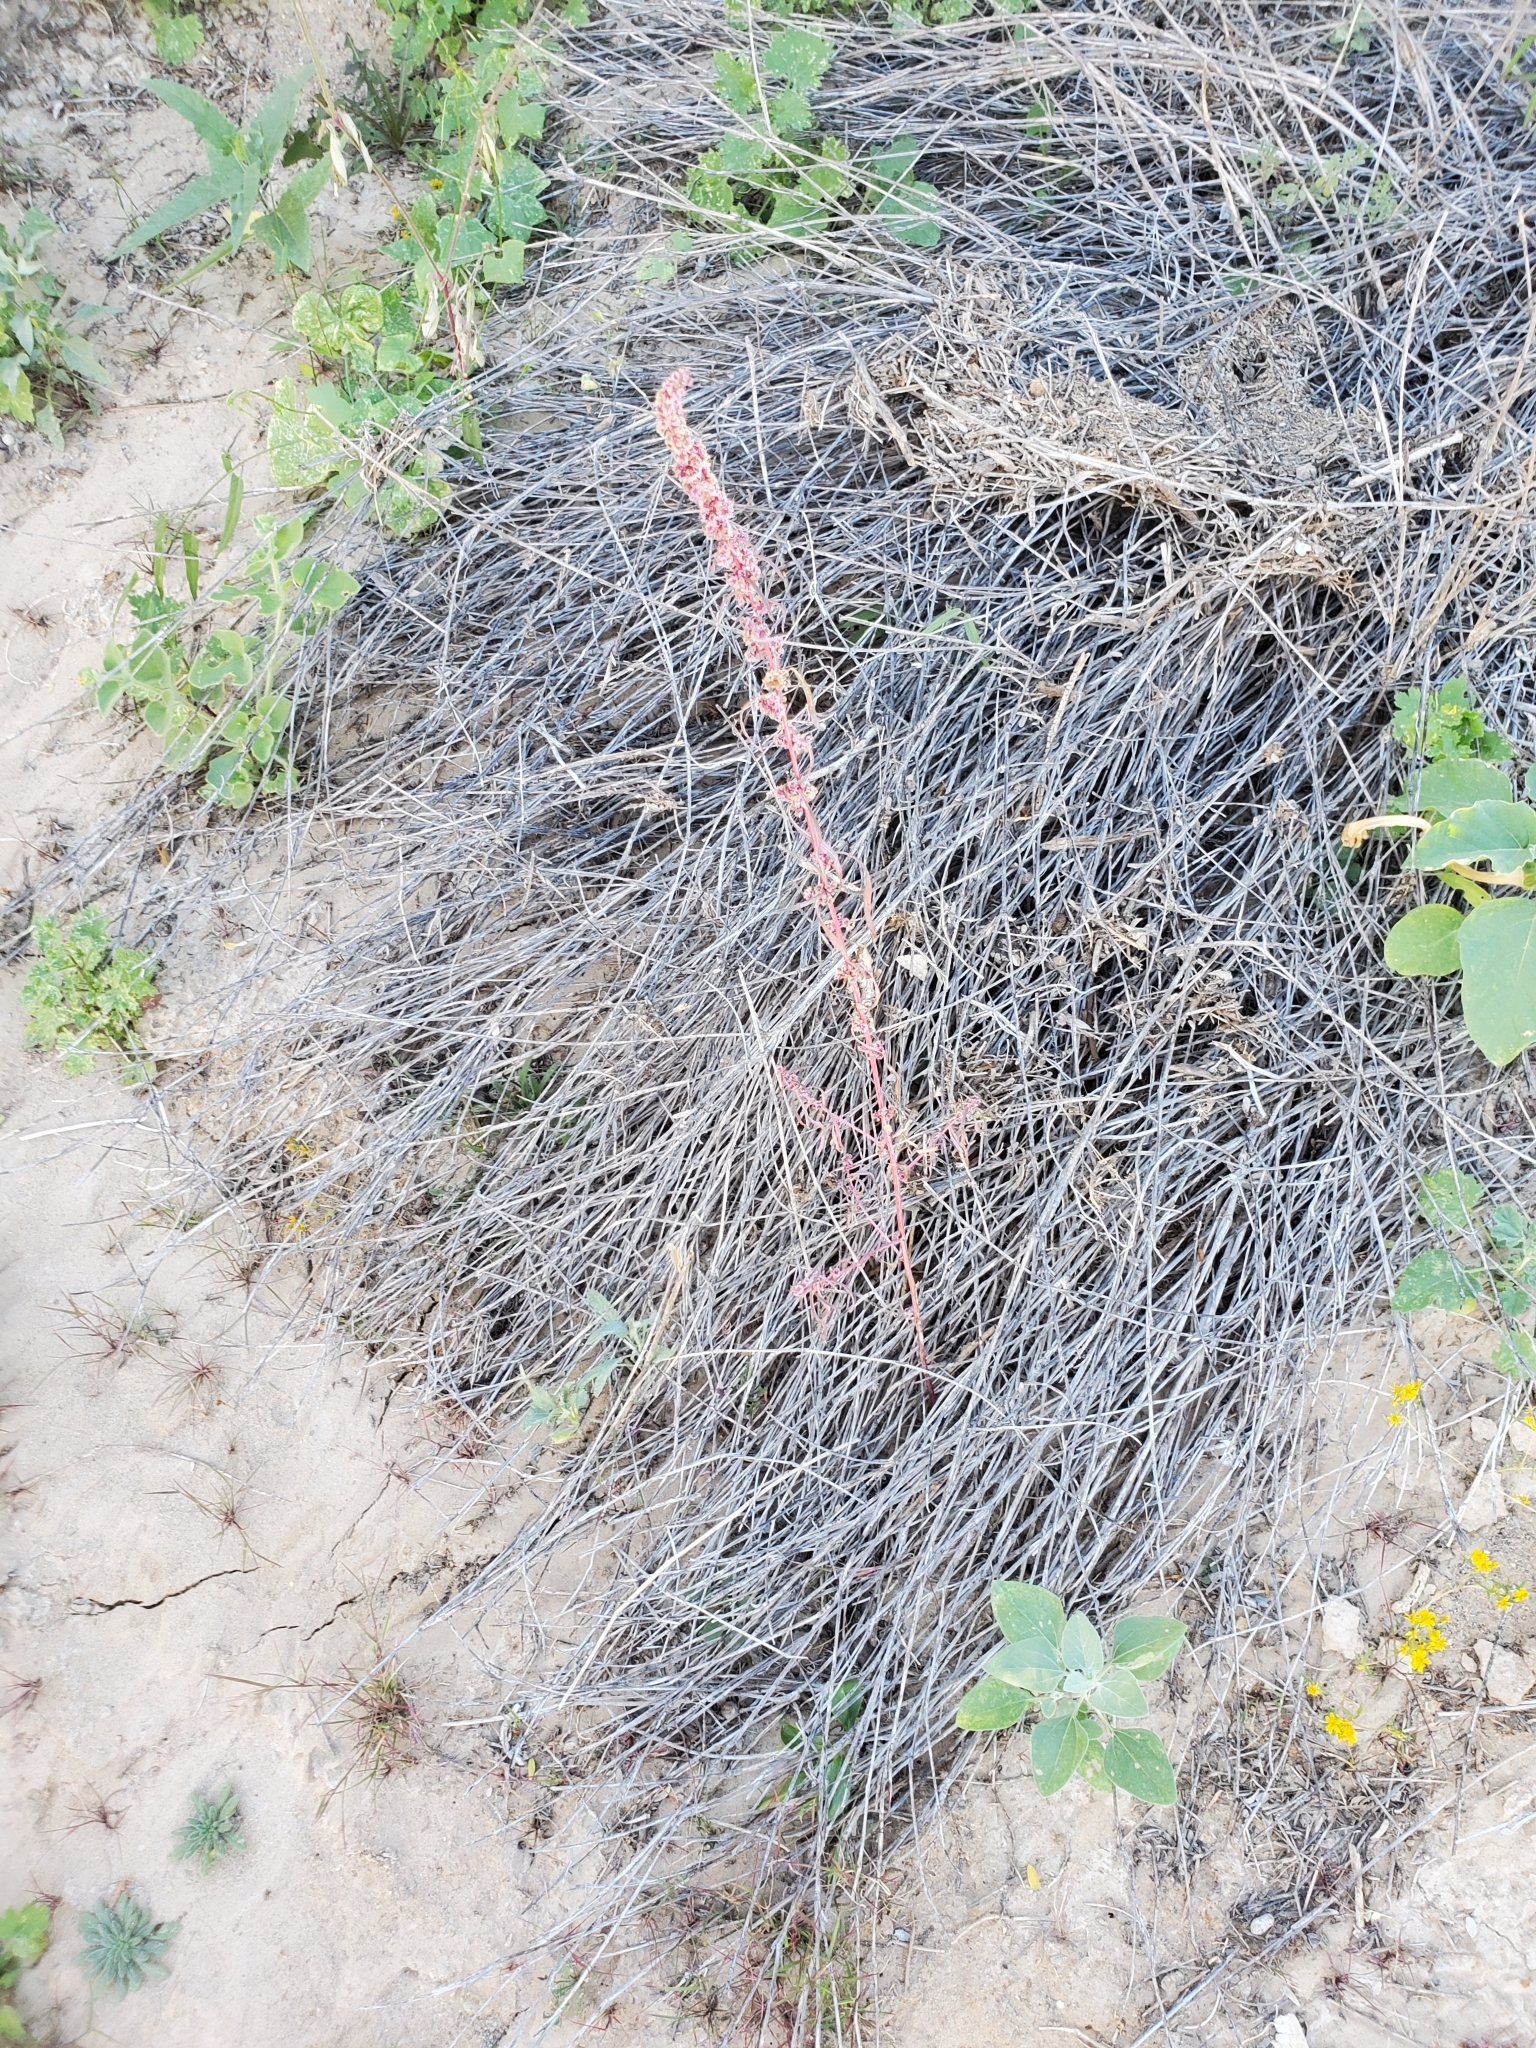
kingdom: Plantae
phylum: Tracheophyta
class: Magnoliopsida
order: Caryophyllales
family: Amaranthaceae
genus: Amaranthus
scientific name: Amaranthus fimbriatus
